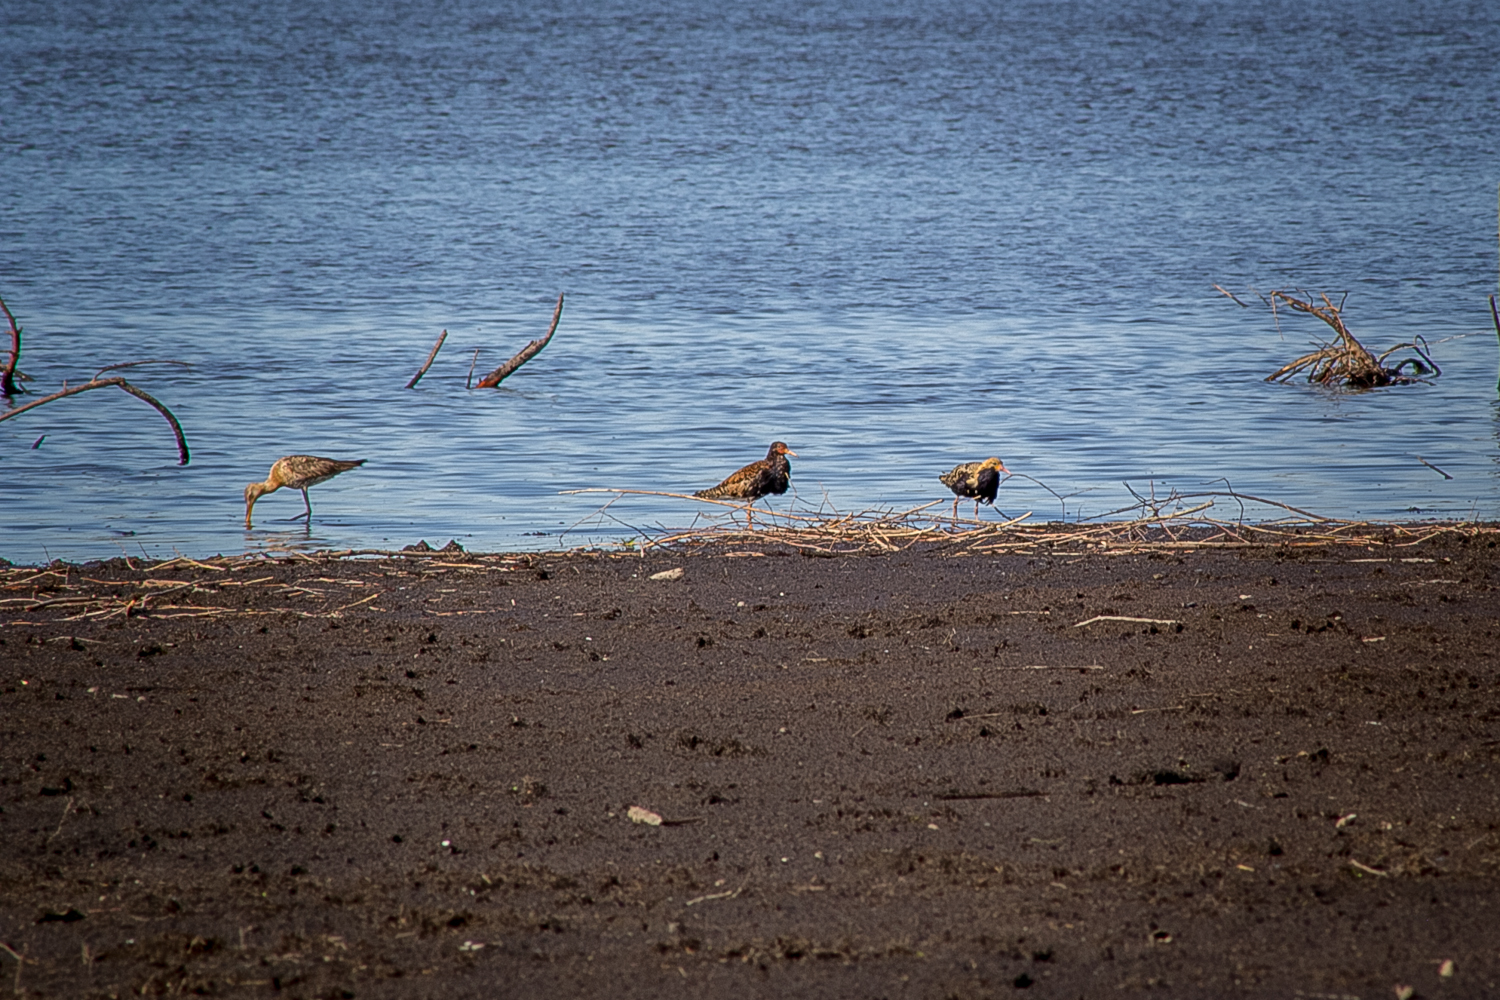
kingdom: Animalia
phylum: Chordata
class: Aves
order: Charadriiformes
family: Scolopacidae
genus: Calidris
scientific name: Calidris pugnax
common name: Ruff
